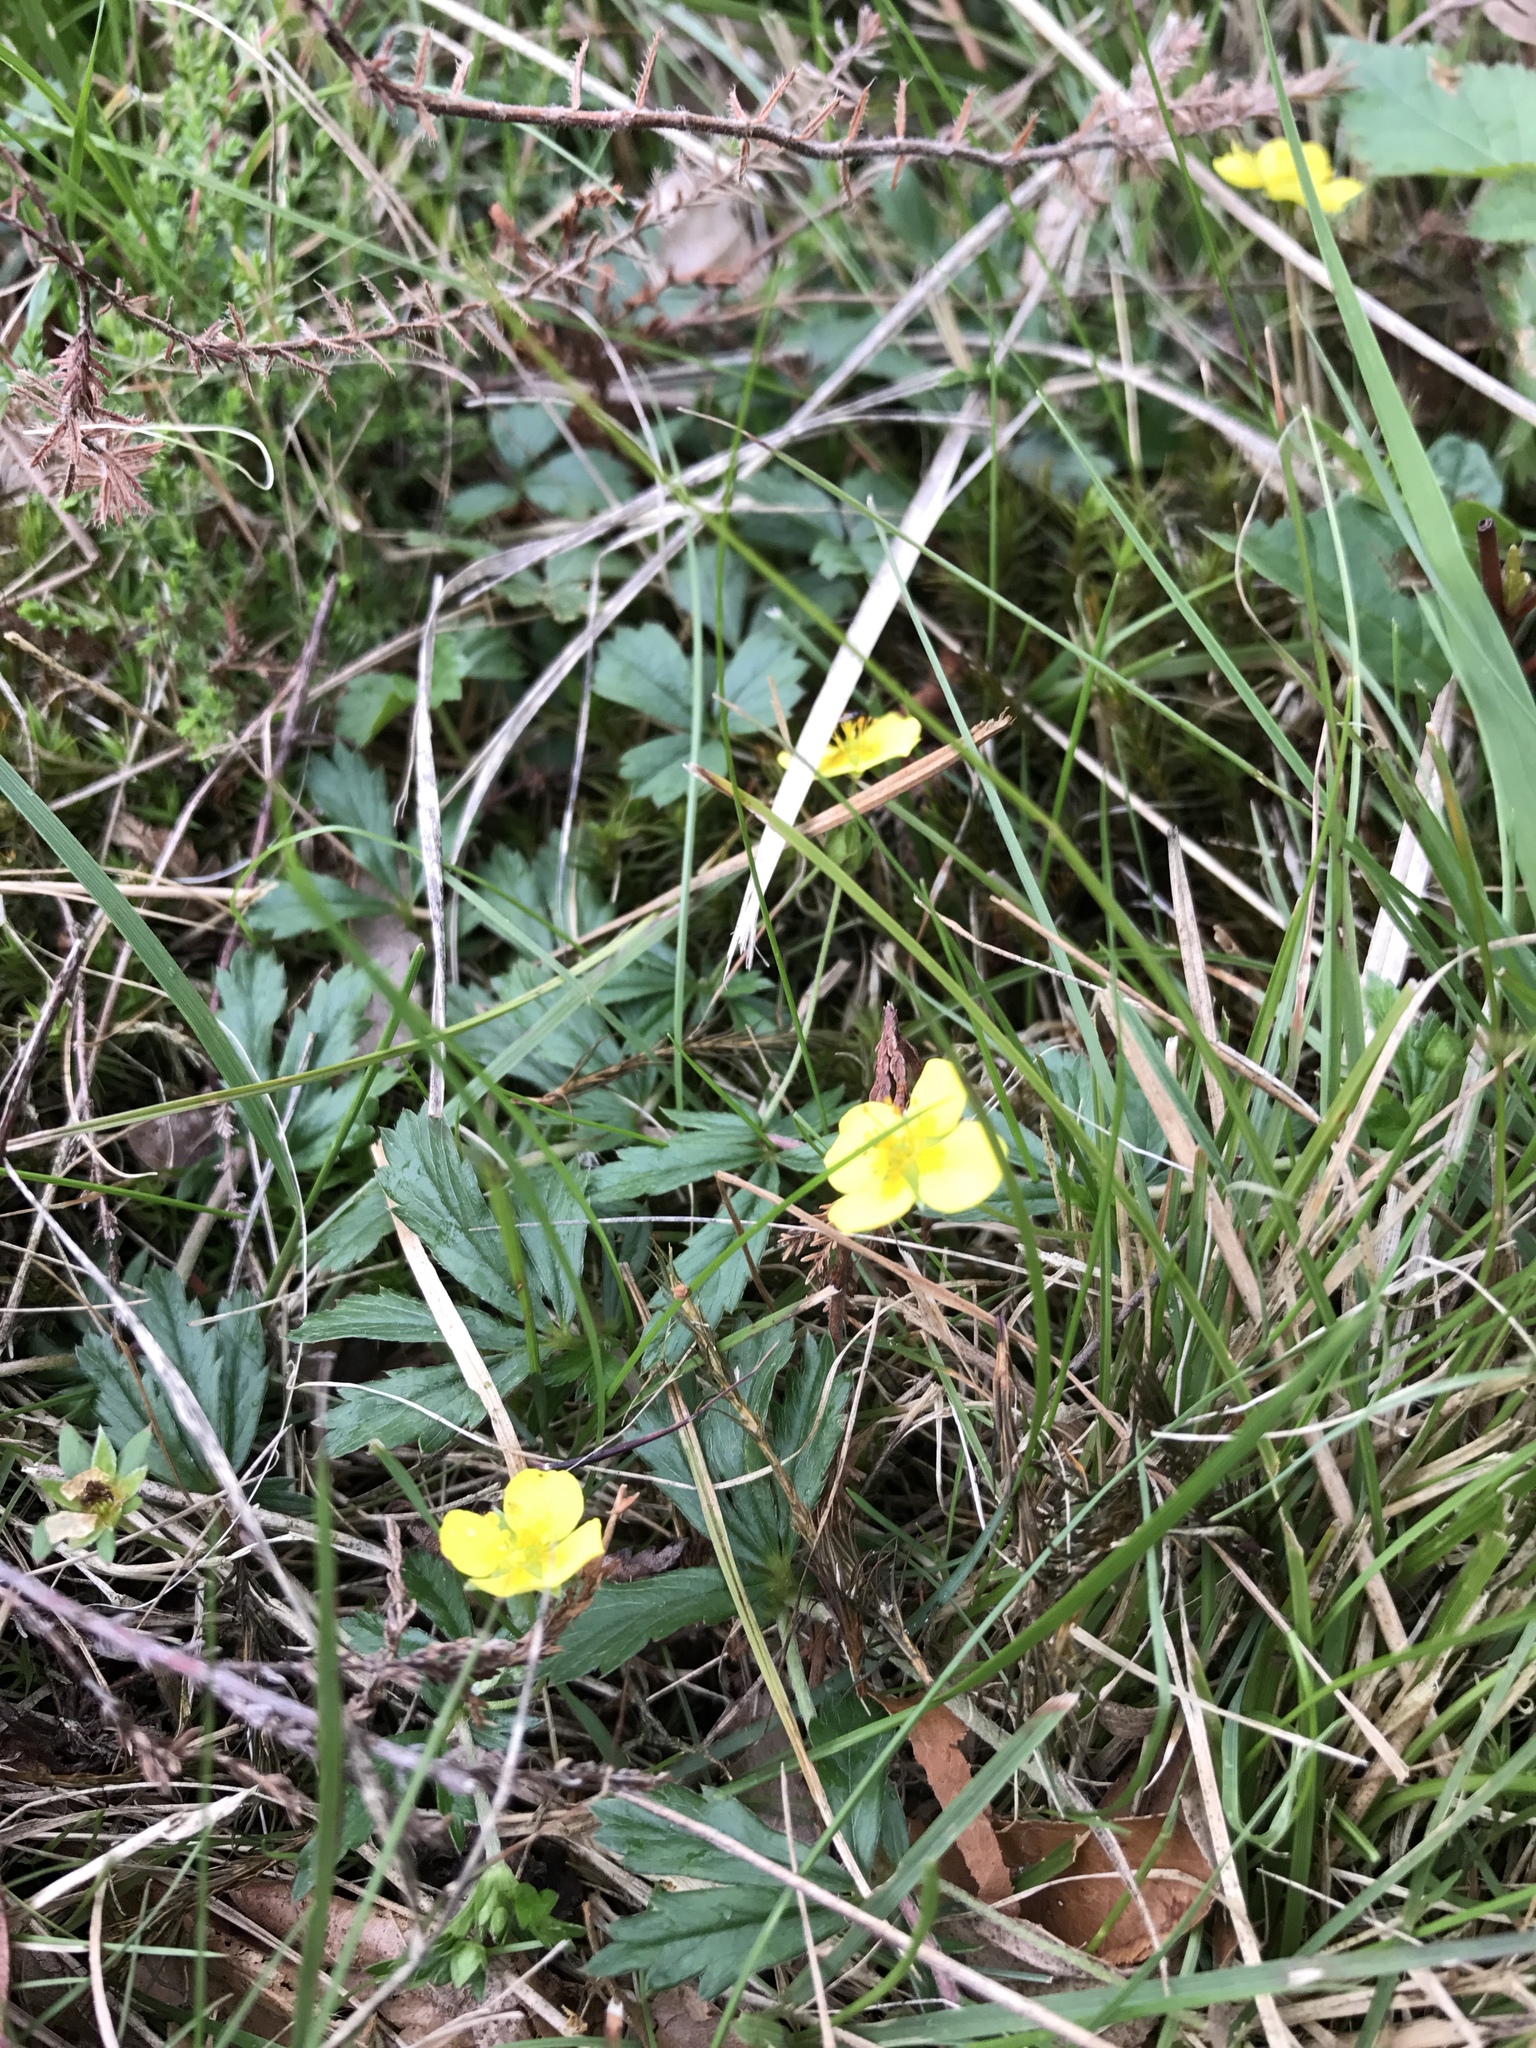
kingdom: Plantae
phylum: Tracheophyta
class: Magnoliopsida
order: Rosales
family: Rosaceae
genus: Potentilla
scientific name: Potentilla erecta
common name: Tormentil
